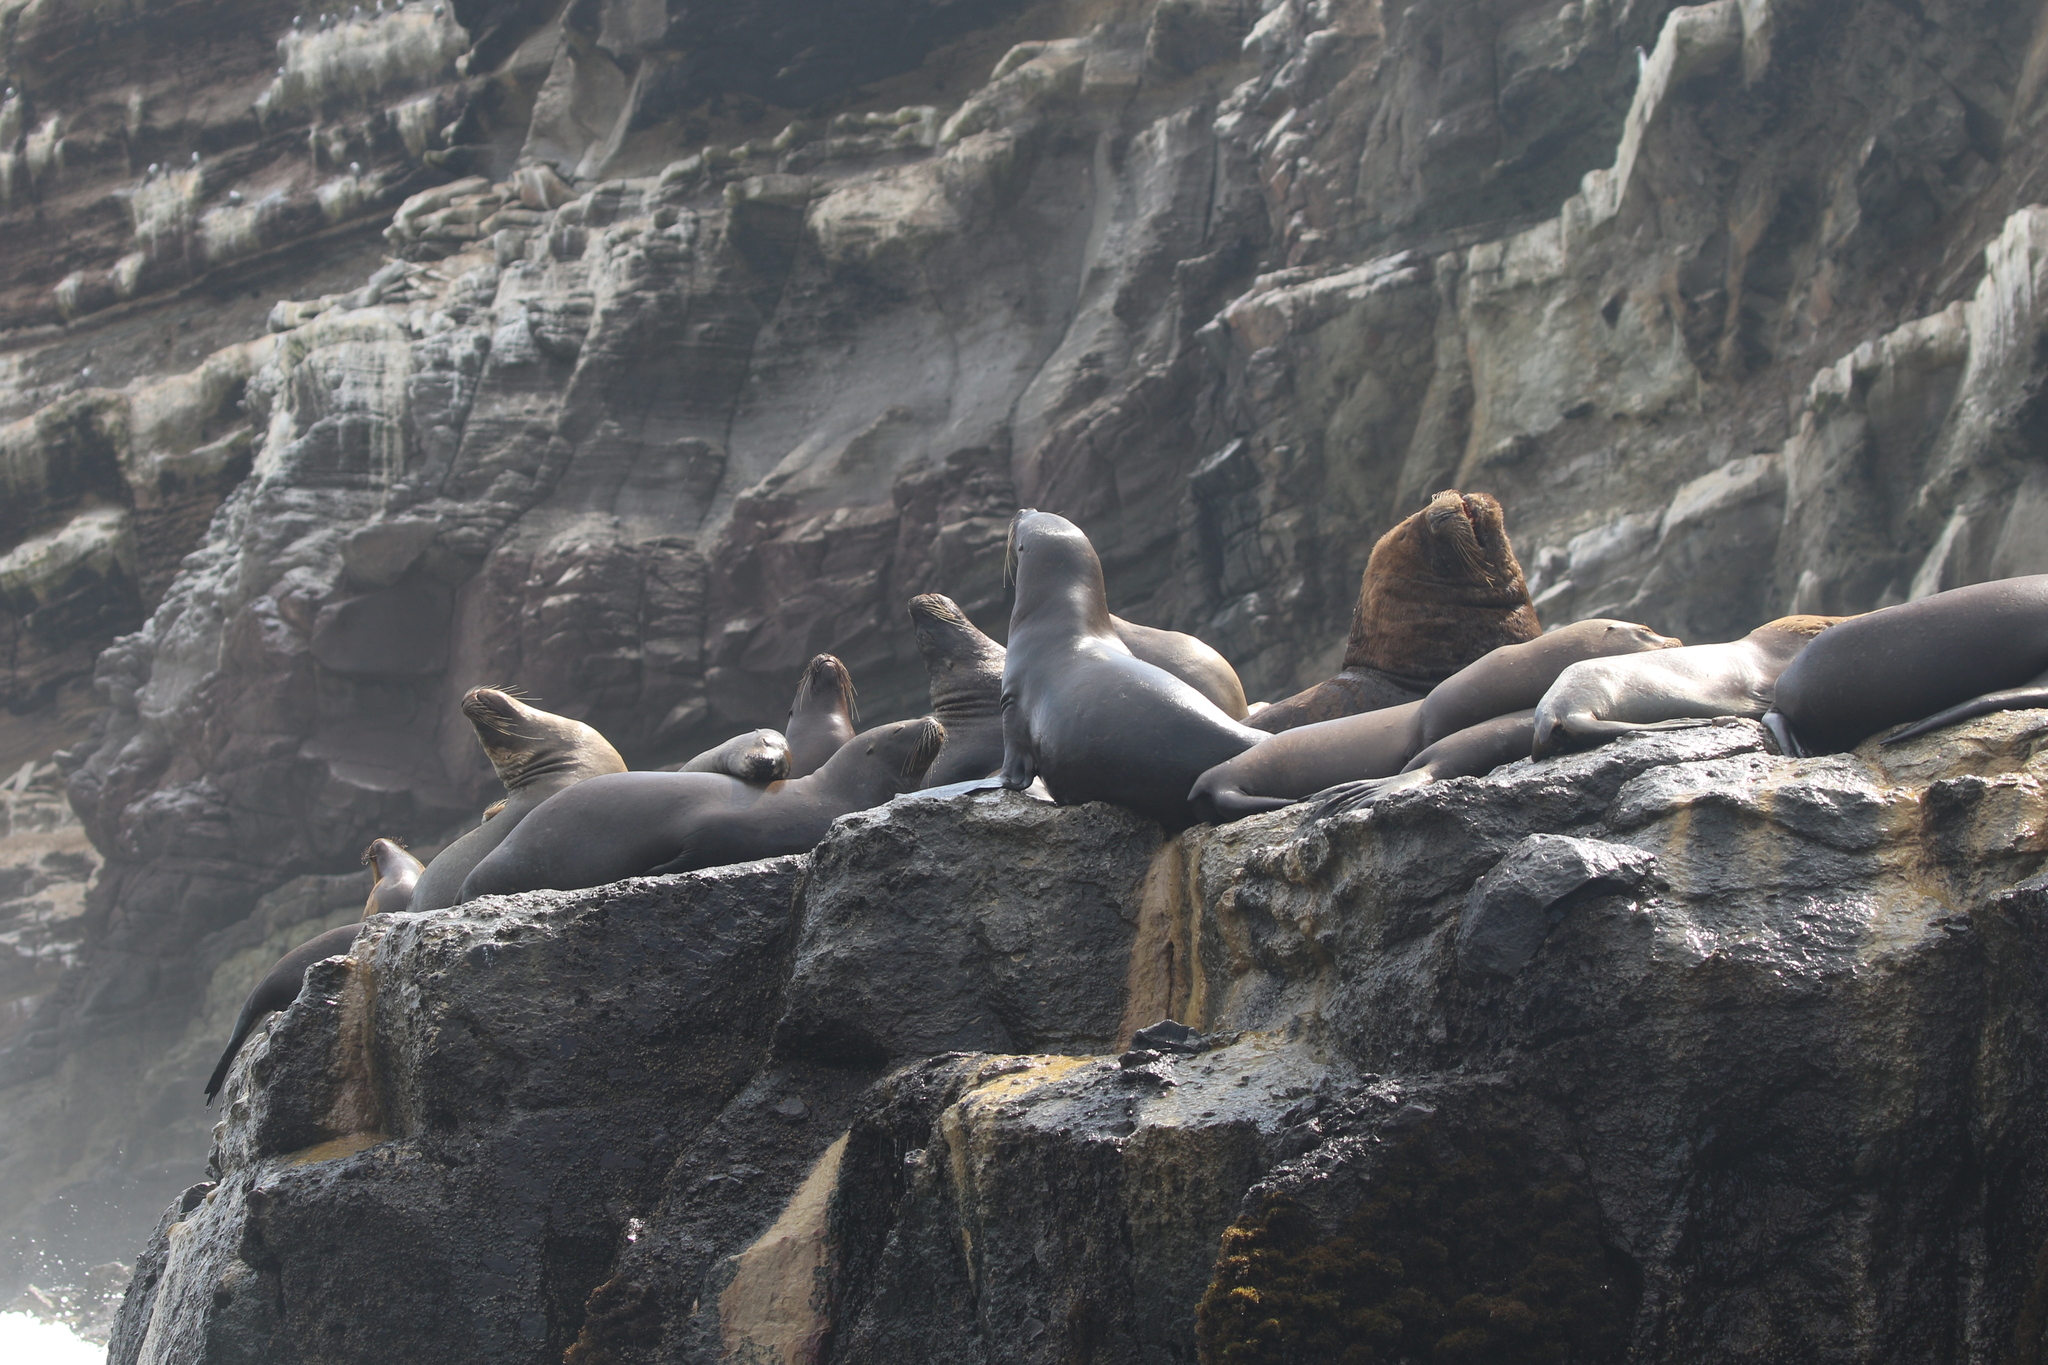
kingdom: Animalia
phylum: Chordata
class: Mammalia
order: Carnivora
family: Otariidae
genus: Otaria
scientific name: Otaria byronia
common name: South american sea lion
